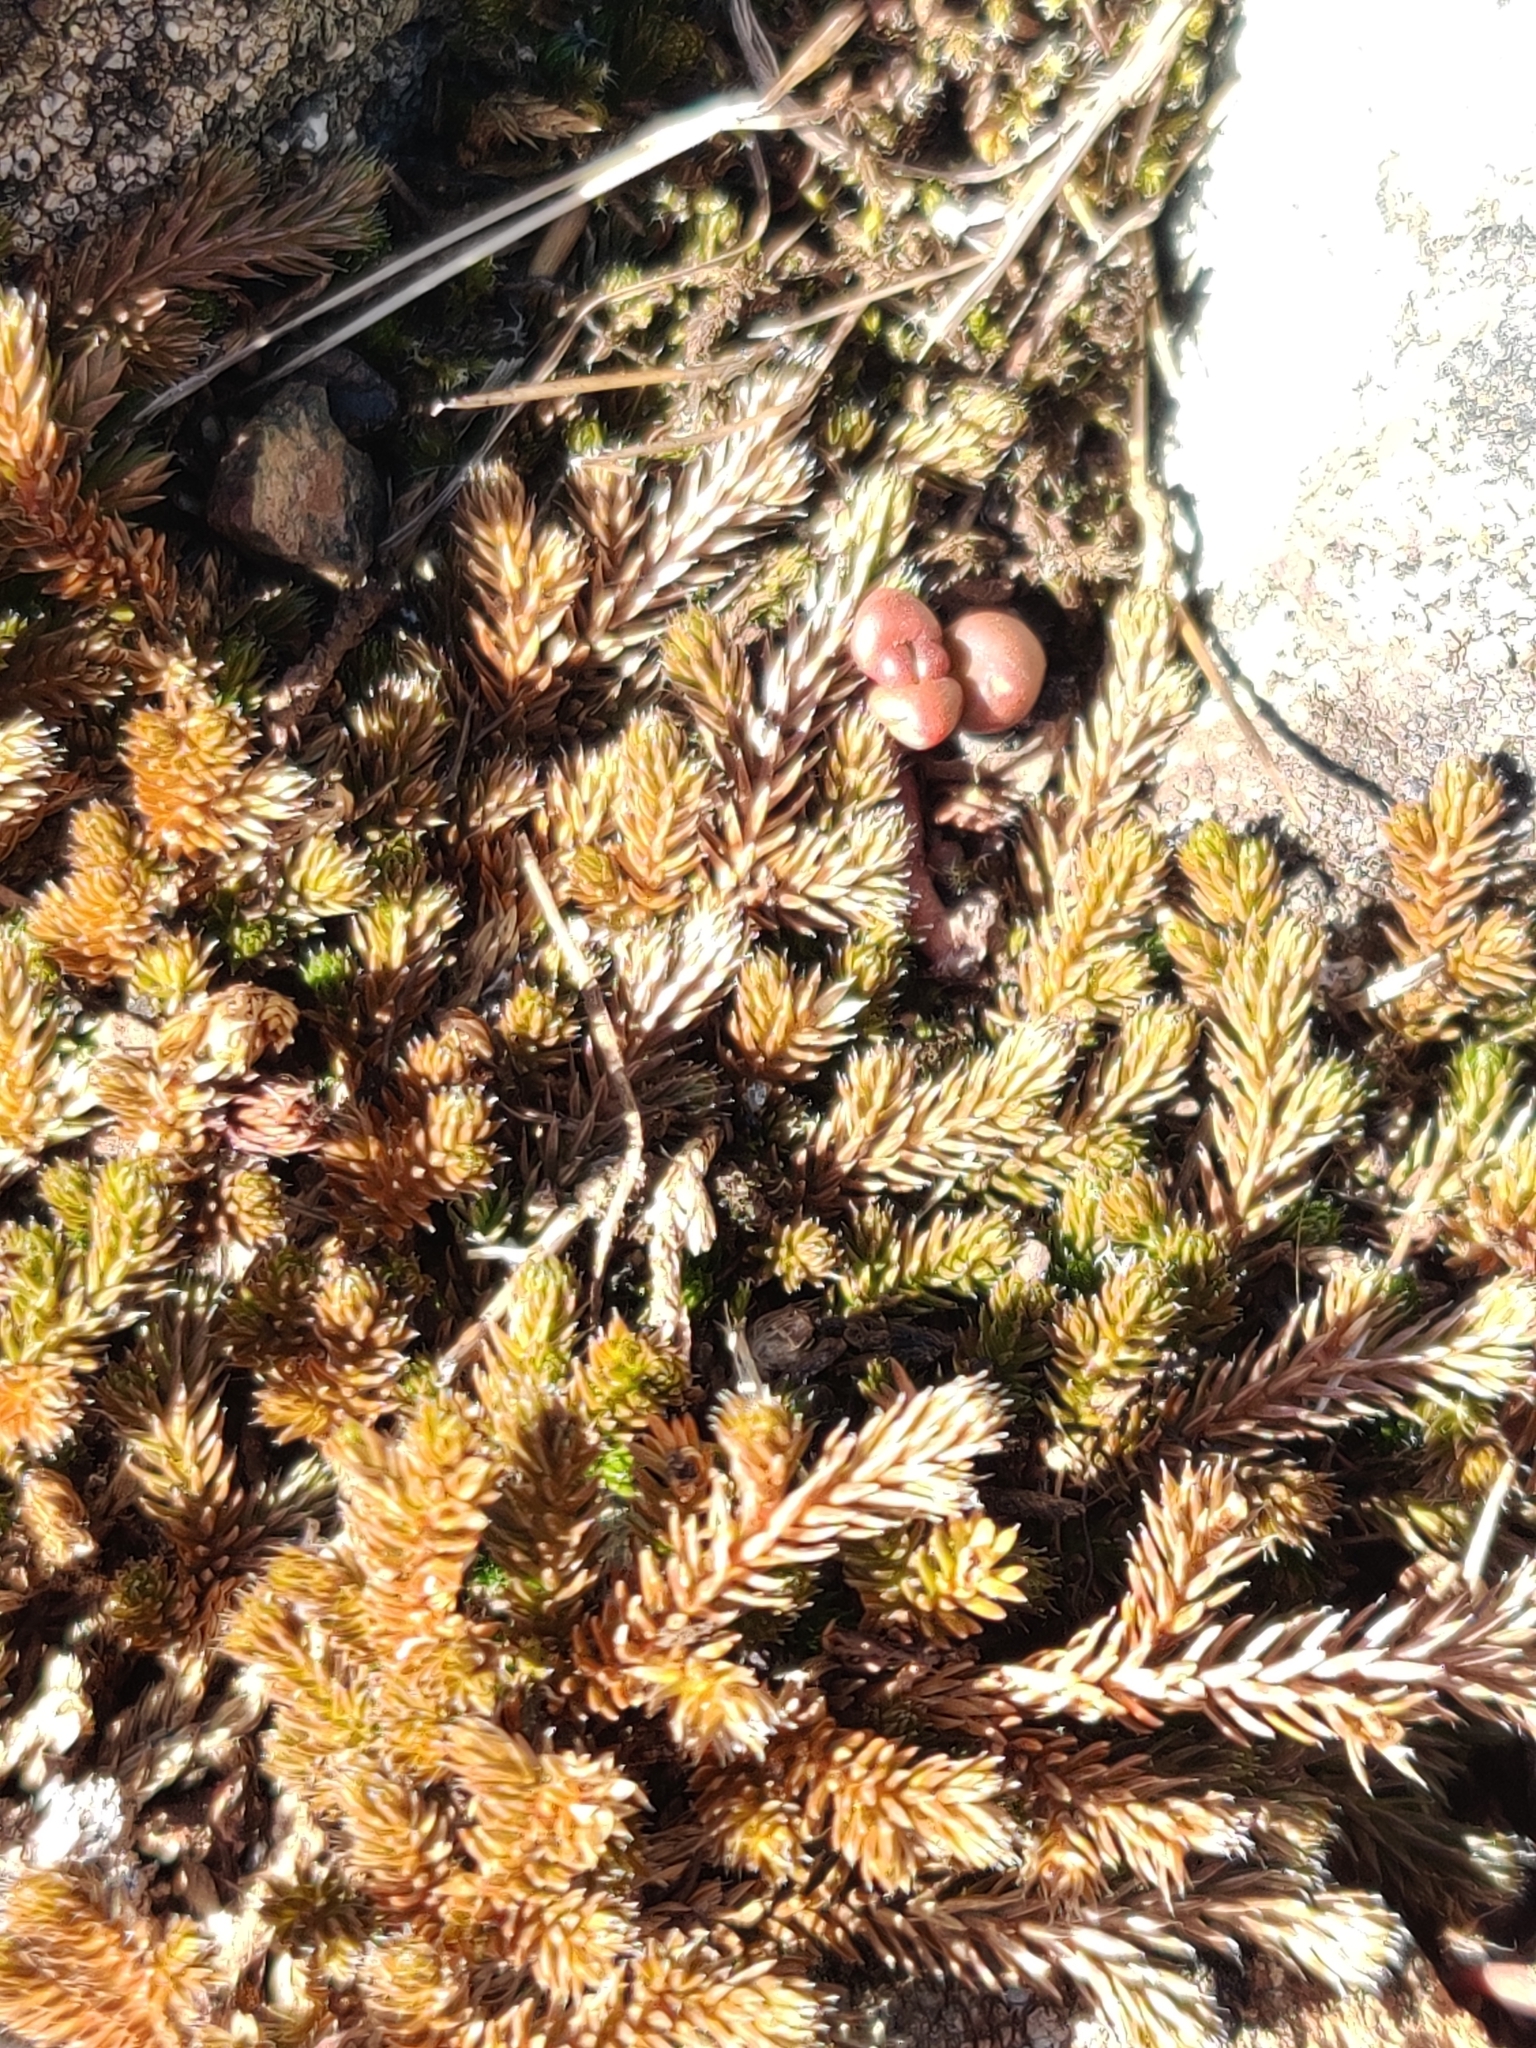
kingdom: Plantae
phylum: Tracheophyta
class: Lycopodiopsida
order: Selaginellales
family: Selaginellaceae
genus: Selaginella
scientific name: Selaginella wallacei
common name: Wallace's selaginella
